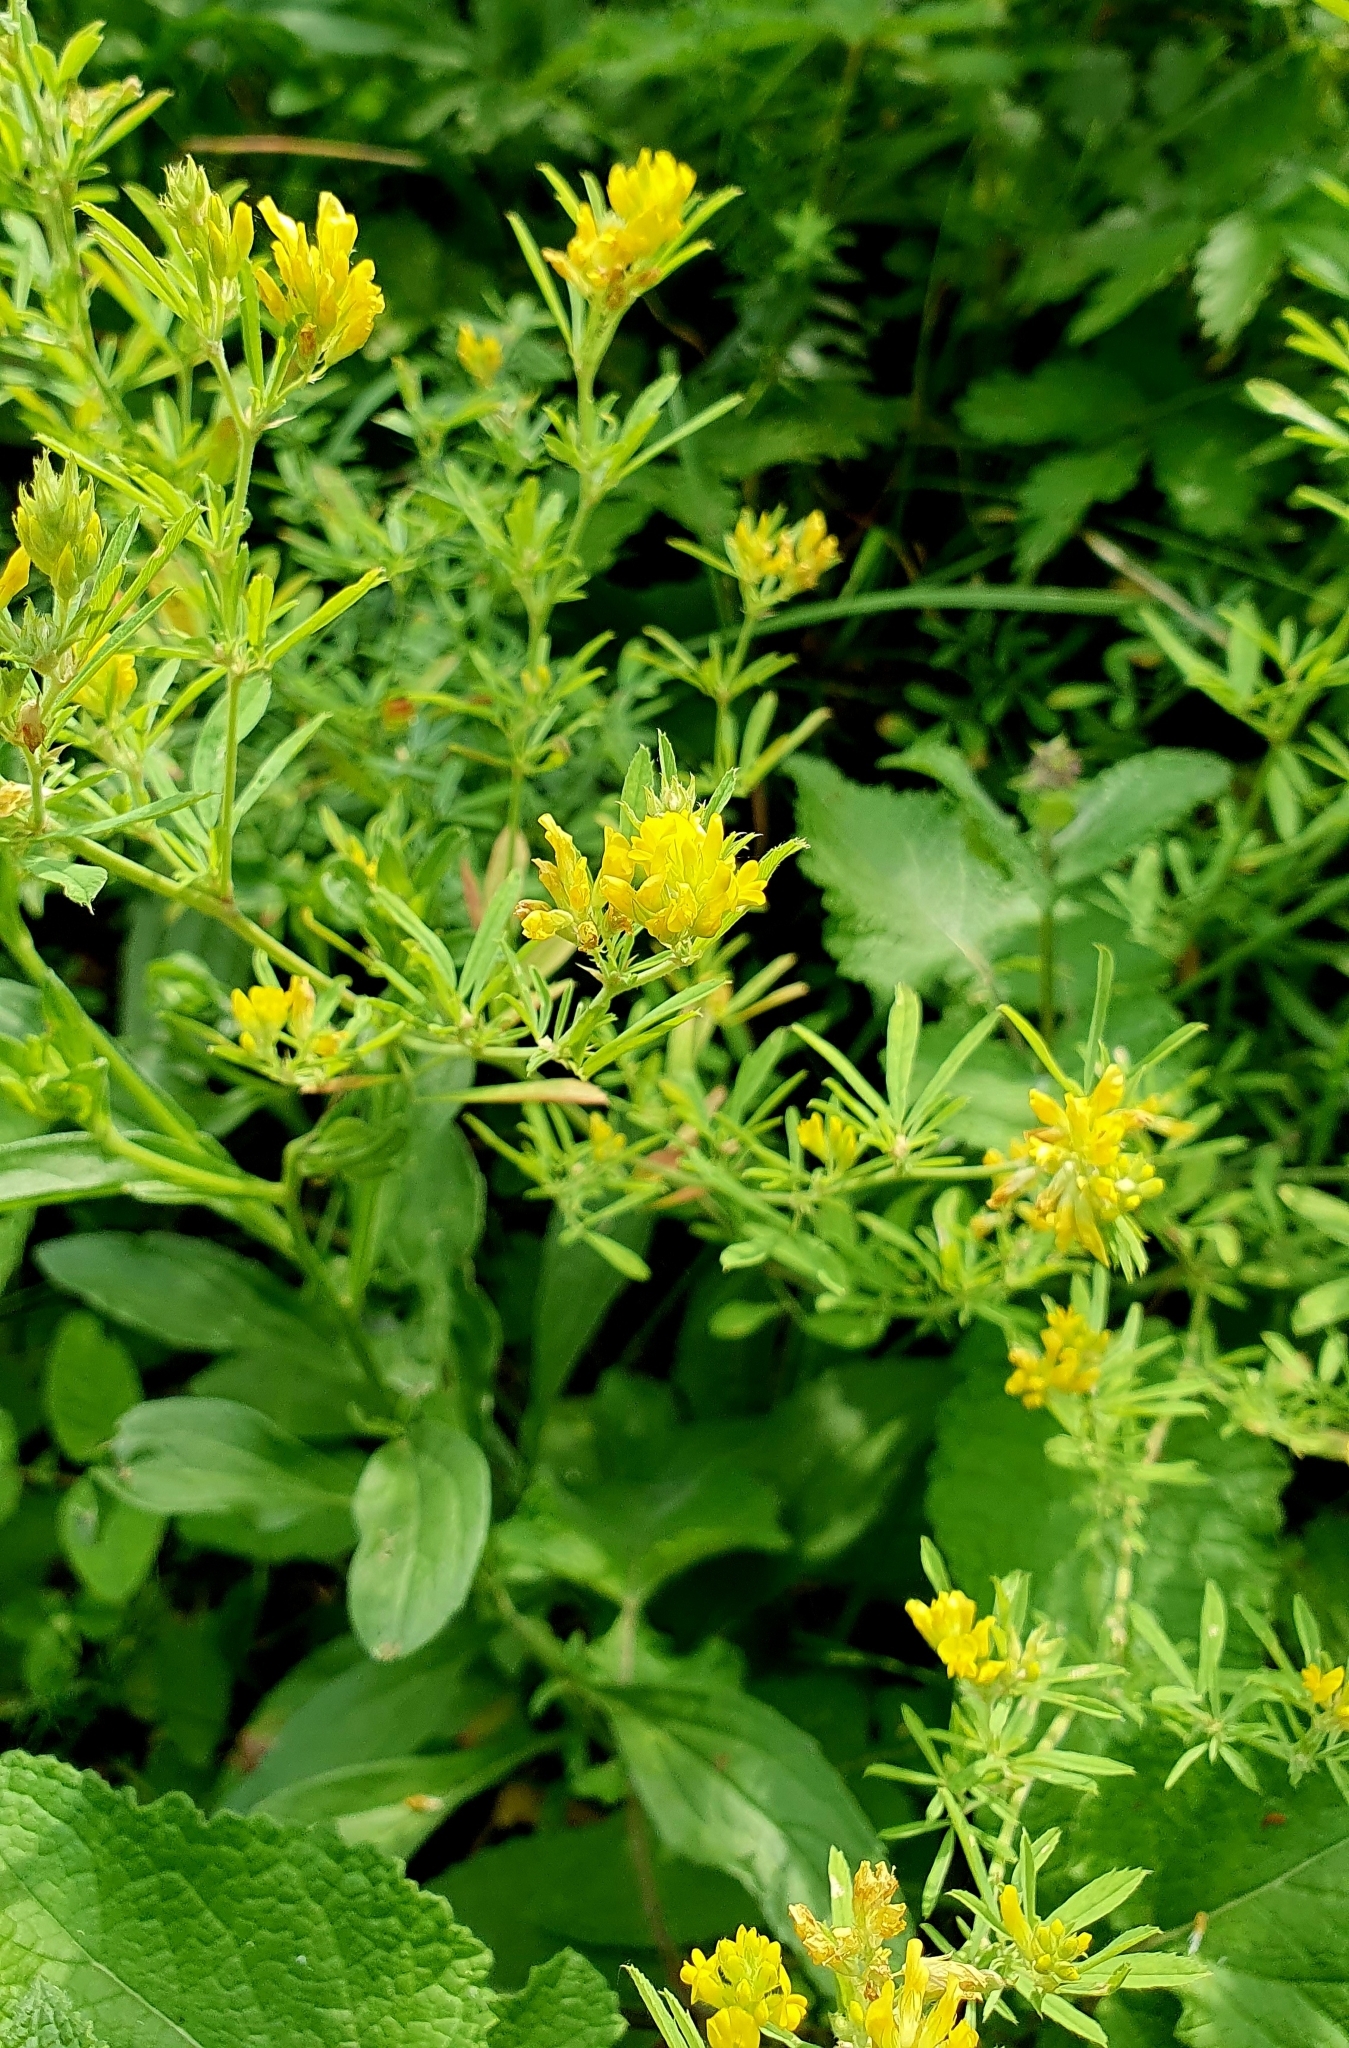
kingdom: Plantae
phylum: Tracheophyta
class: Magnoliopsida
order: Fabales
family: Fabaceae
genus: Medicago
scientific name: Medicago falcata
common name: Sickle medick
